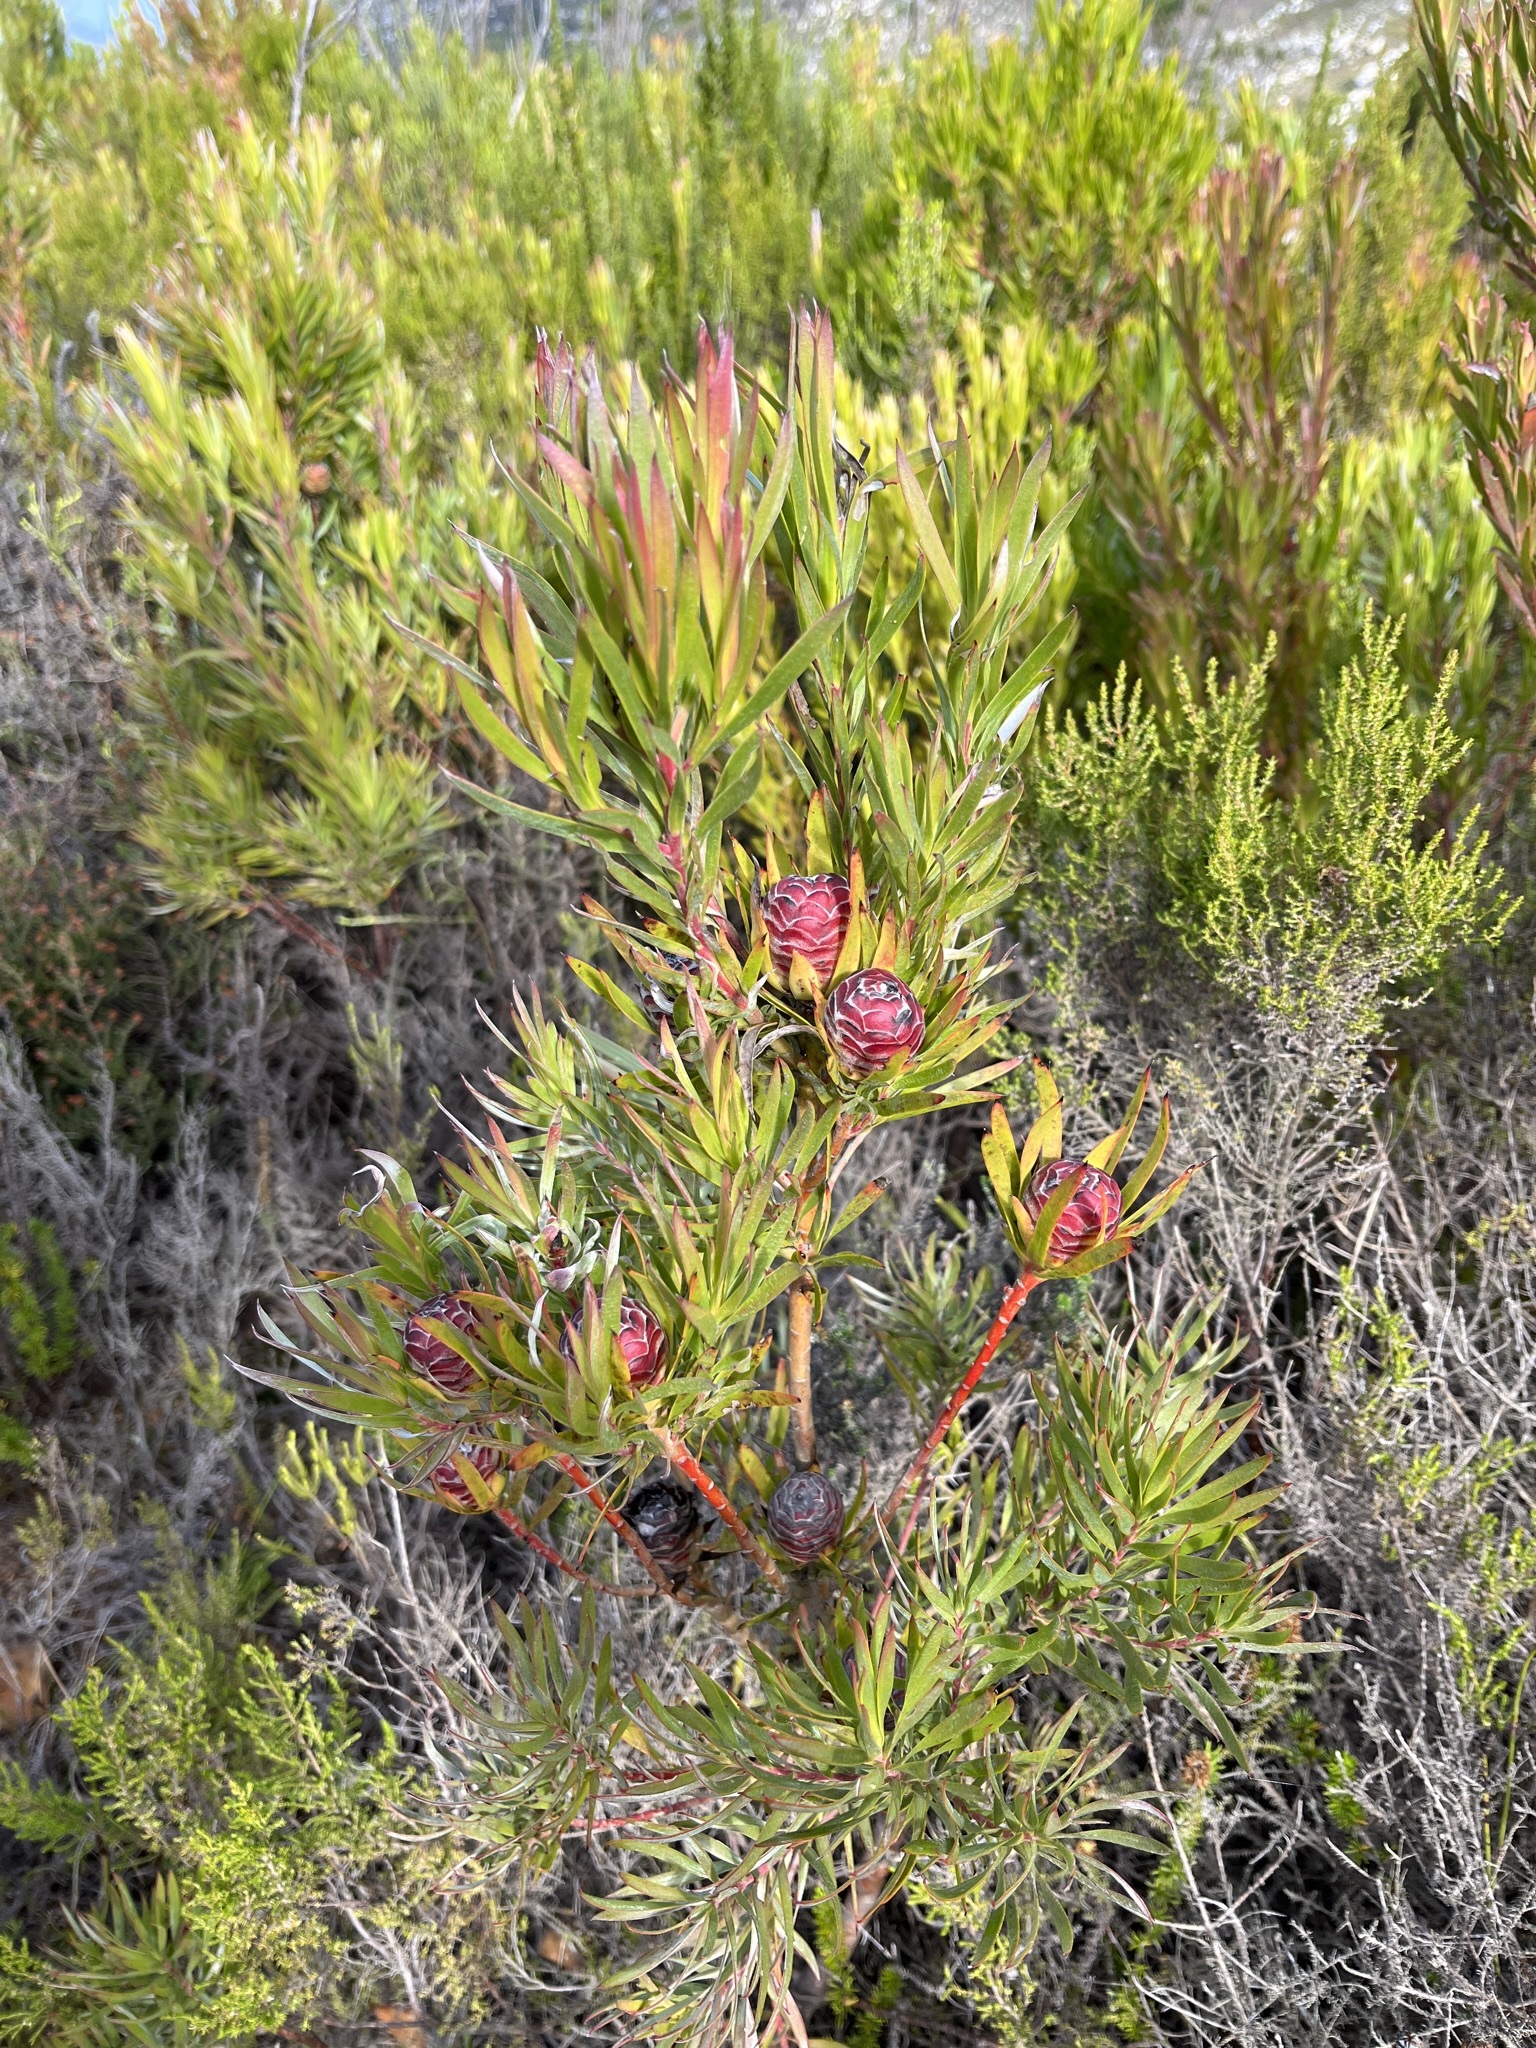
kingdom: Plantae
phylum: Tracheophyta
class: Magnoliopsida
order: Proteales
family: Proteaceae
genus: Leucadendron
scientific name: Leucadendron xanthoconus
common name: Sickle-leaf conebush
